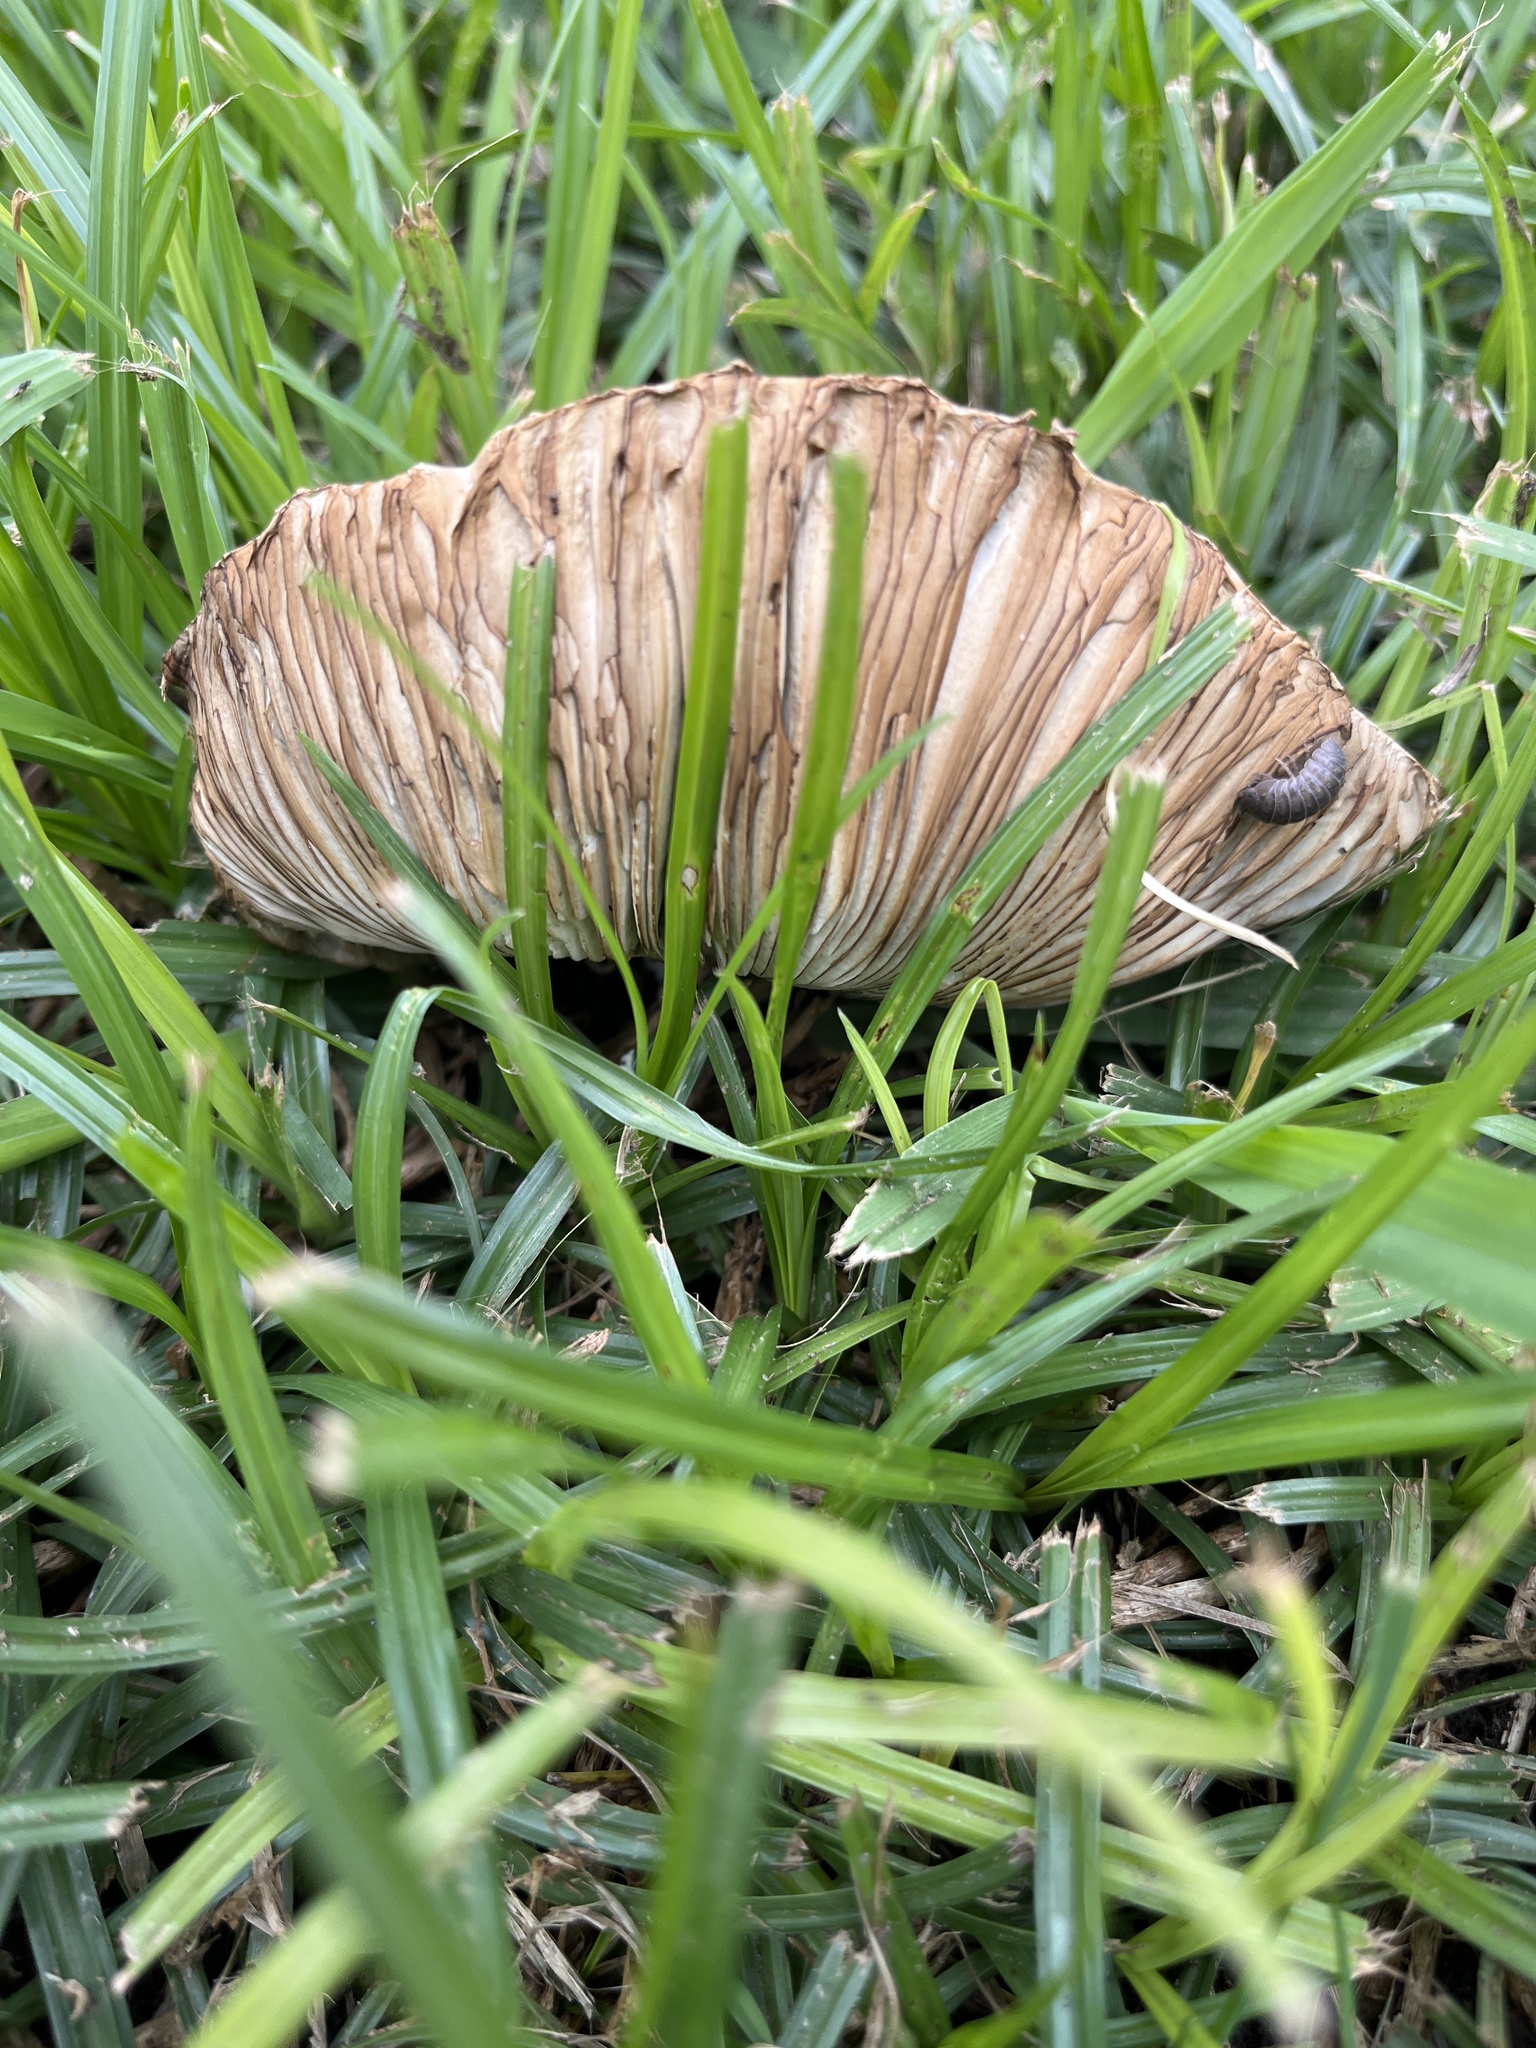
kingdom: Fungi
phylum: Basidiomycota
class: Agaricomycetes
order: Agaricales
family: Agaricaceae
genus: Chlorophyllum
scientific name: Chlorophyllum molybdites
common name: False parasol
